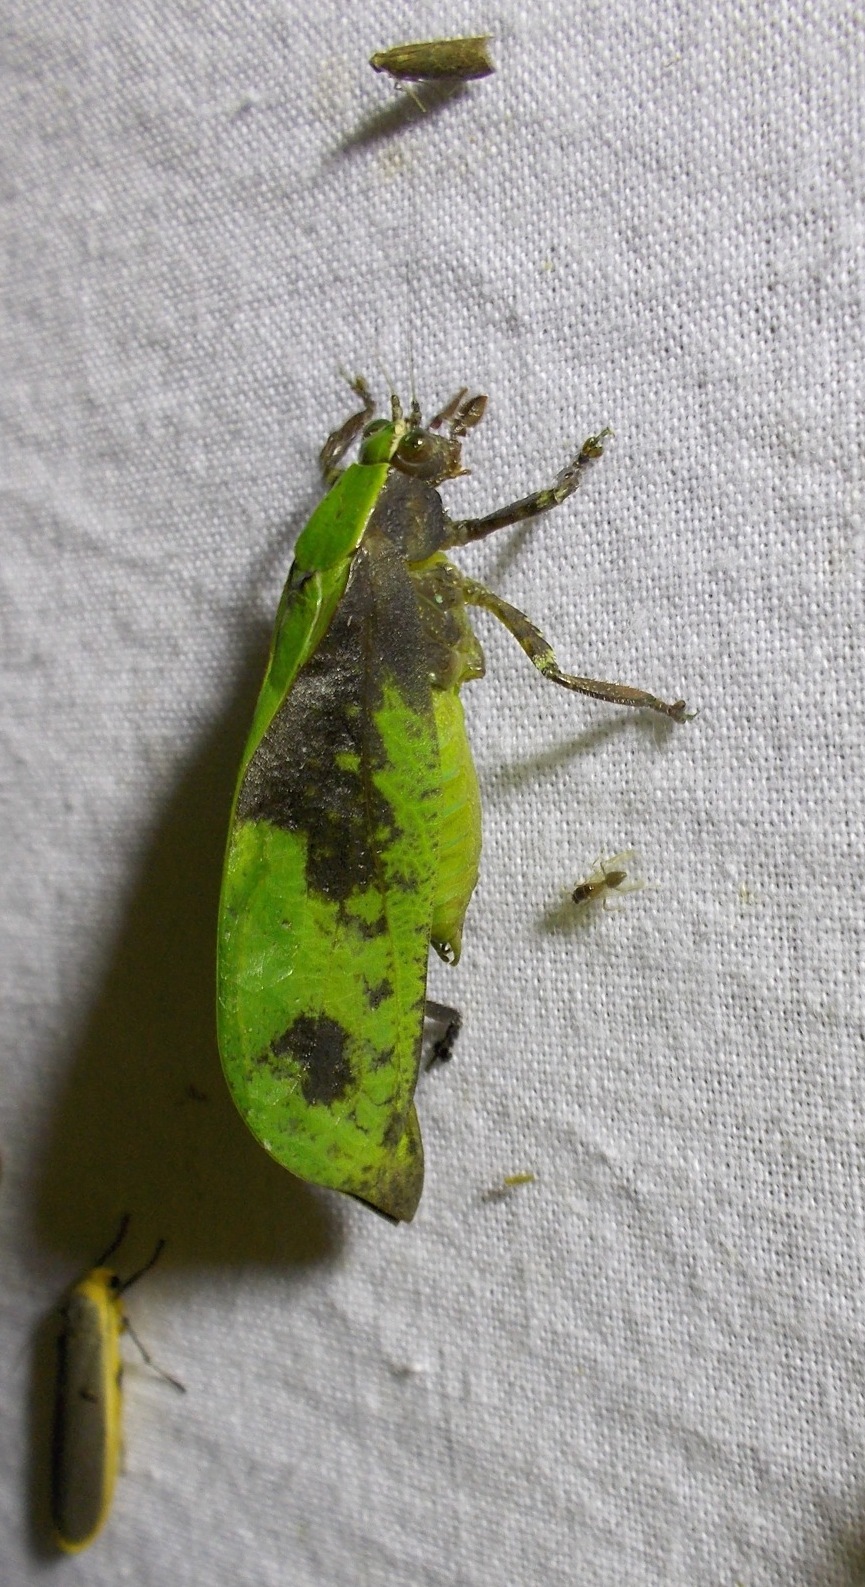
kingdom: Animalia
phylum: Arthropoda
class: Insecta
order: Orthoptera
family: Tettigoniidae
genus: Weissenbornia
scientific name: Weissenbornia praestantissima
